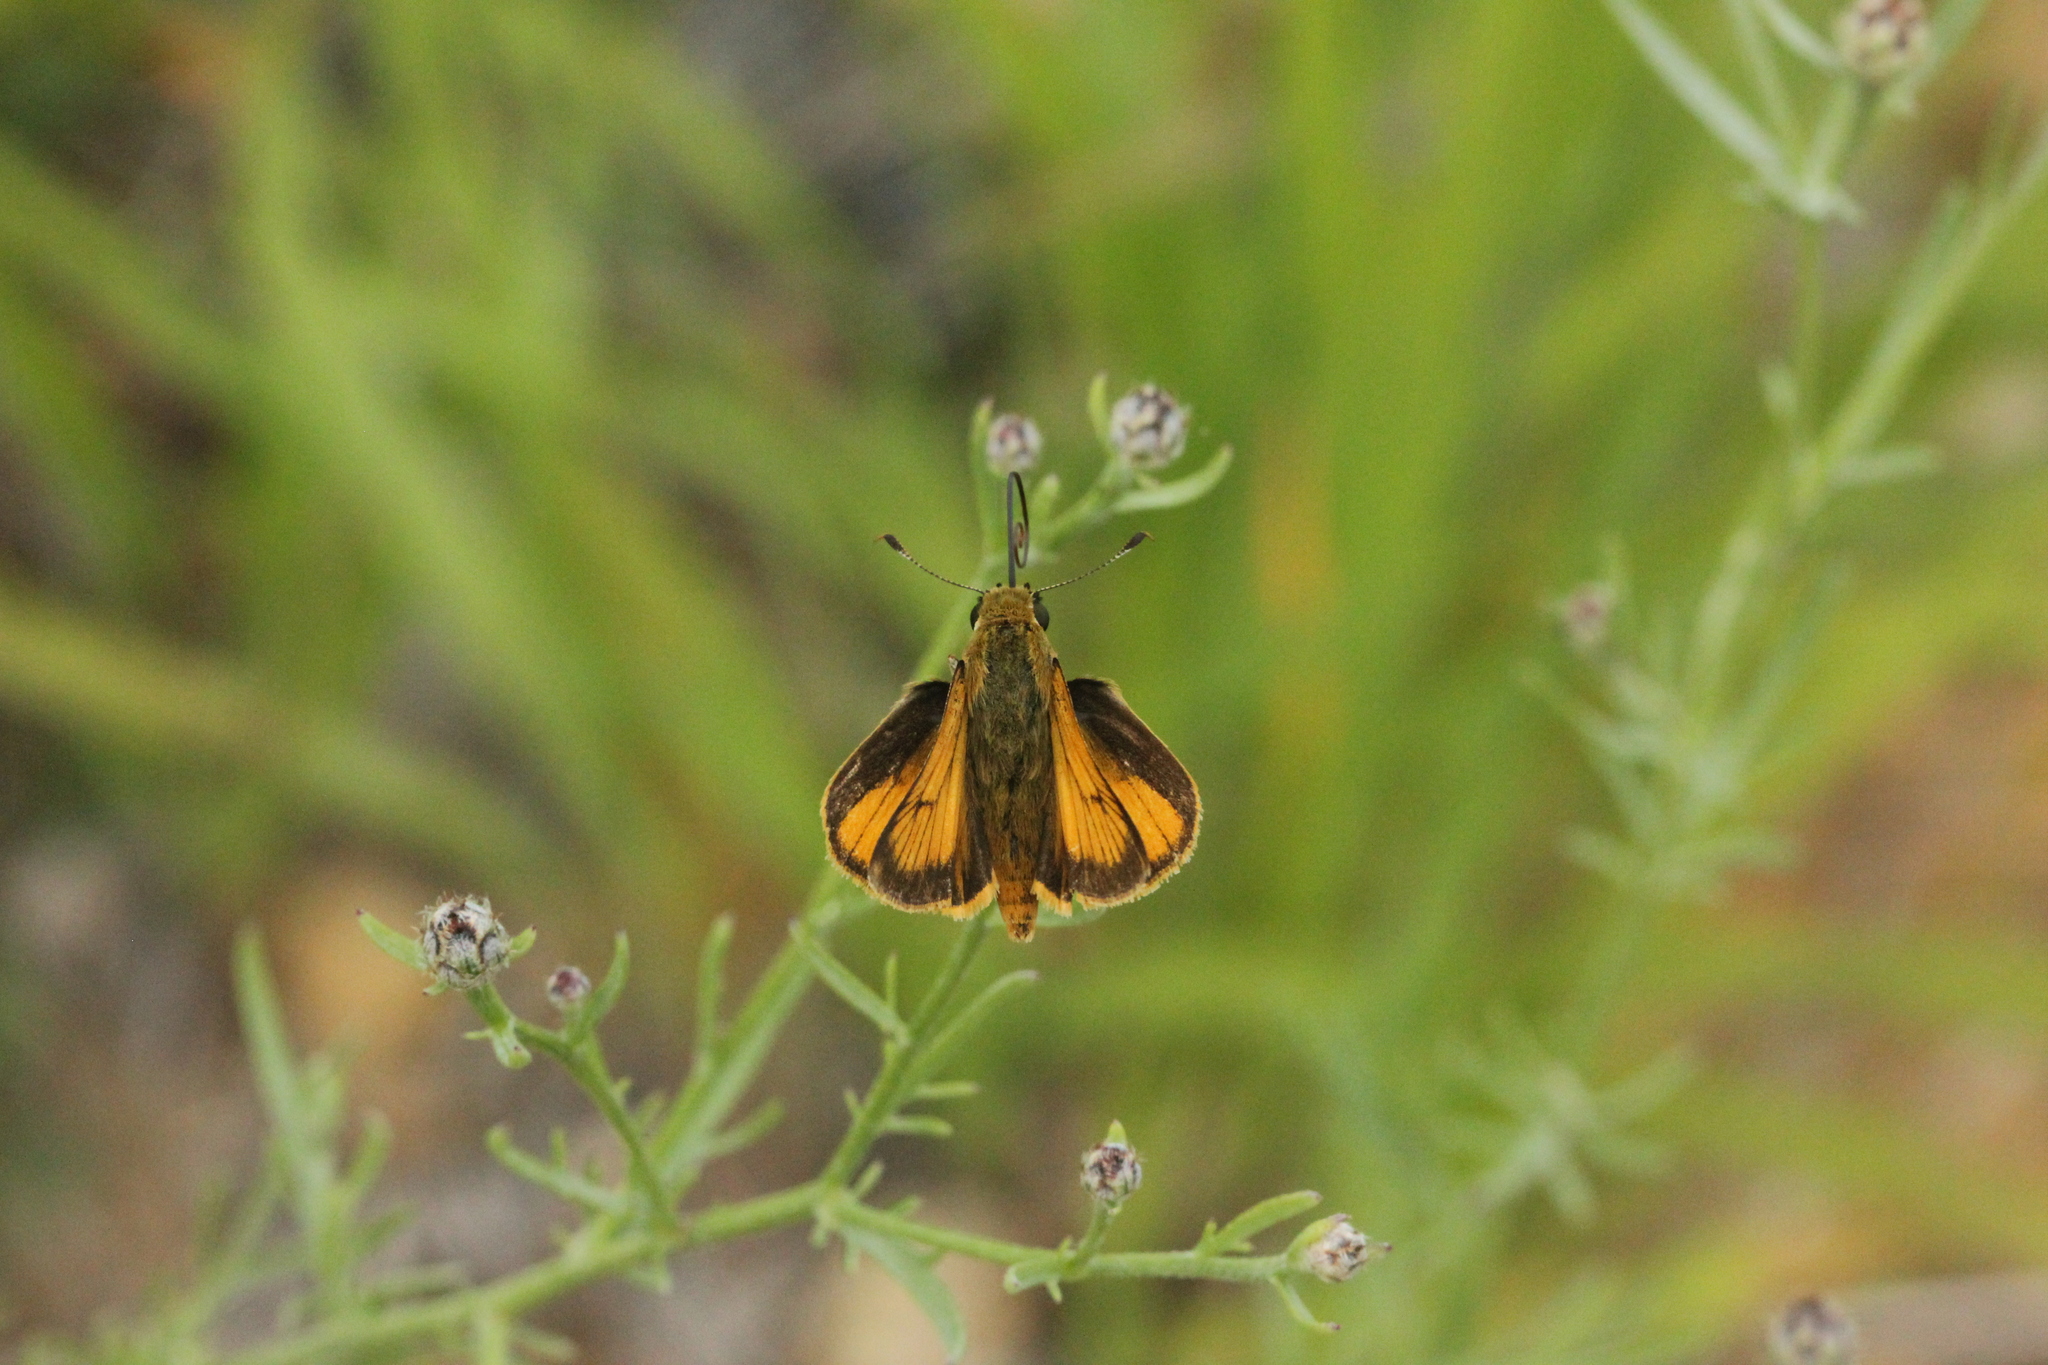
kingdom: Animalia
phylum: Arthropoda
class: Insecta
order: Lepidoptera
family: Hesperiidae
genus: Atrytone
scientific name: Atrytone delaware
